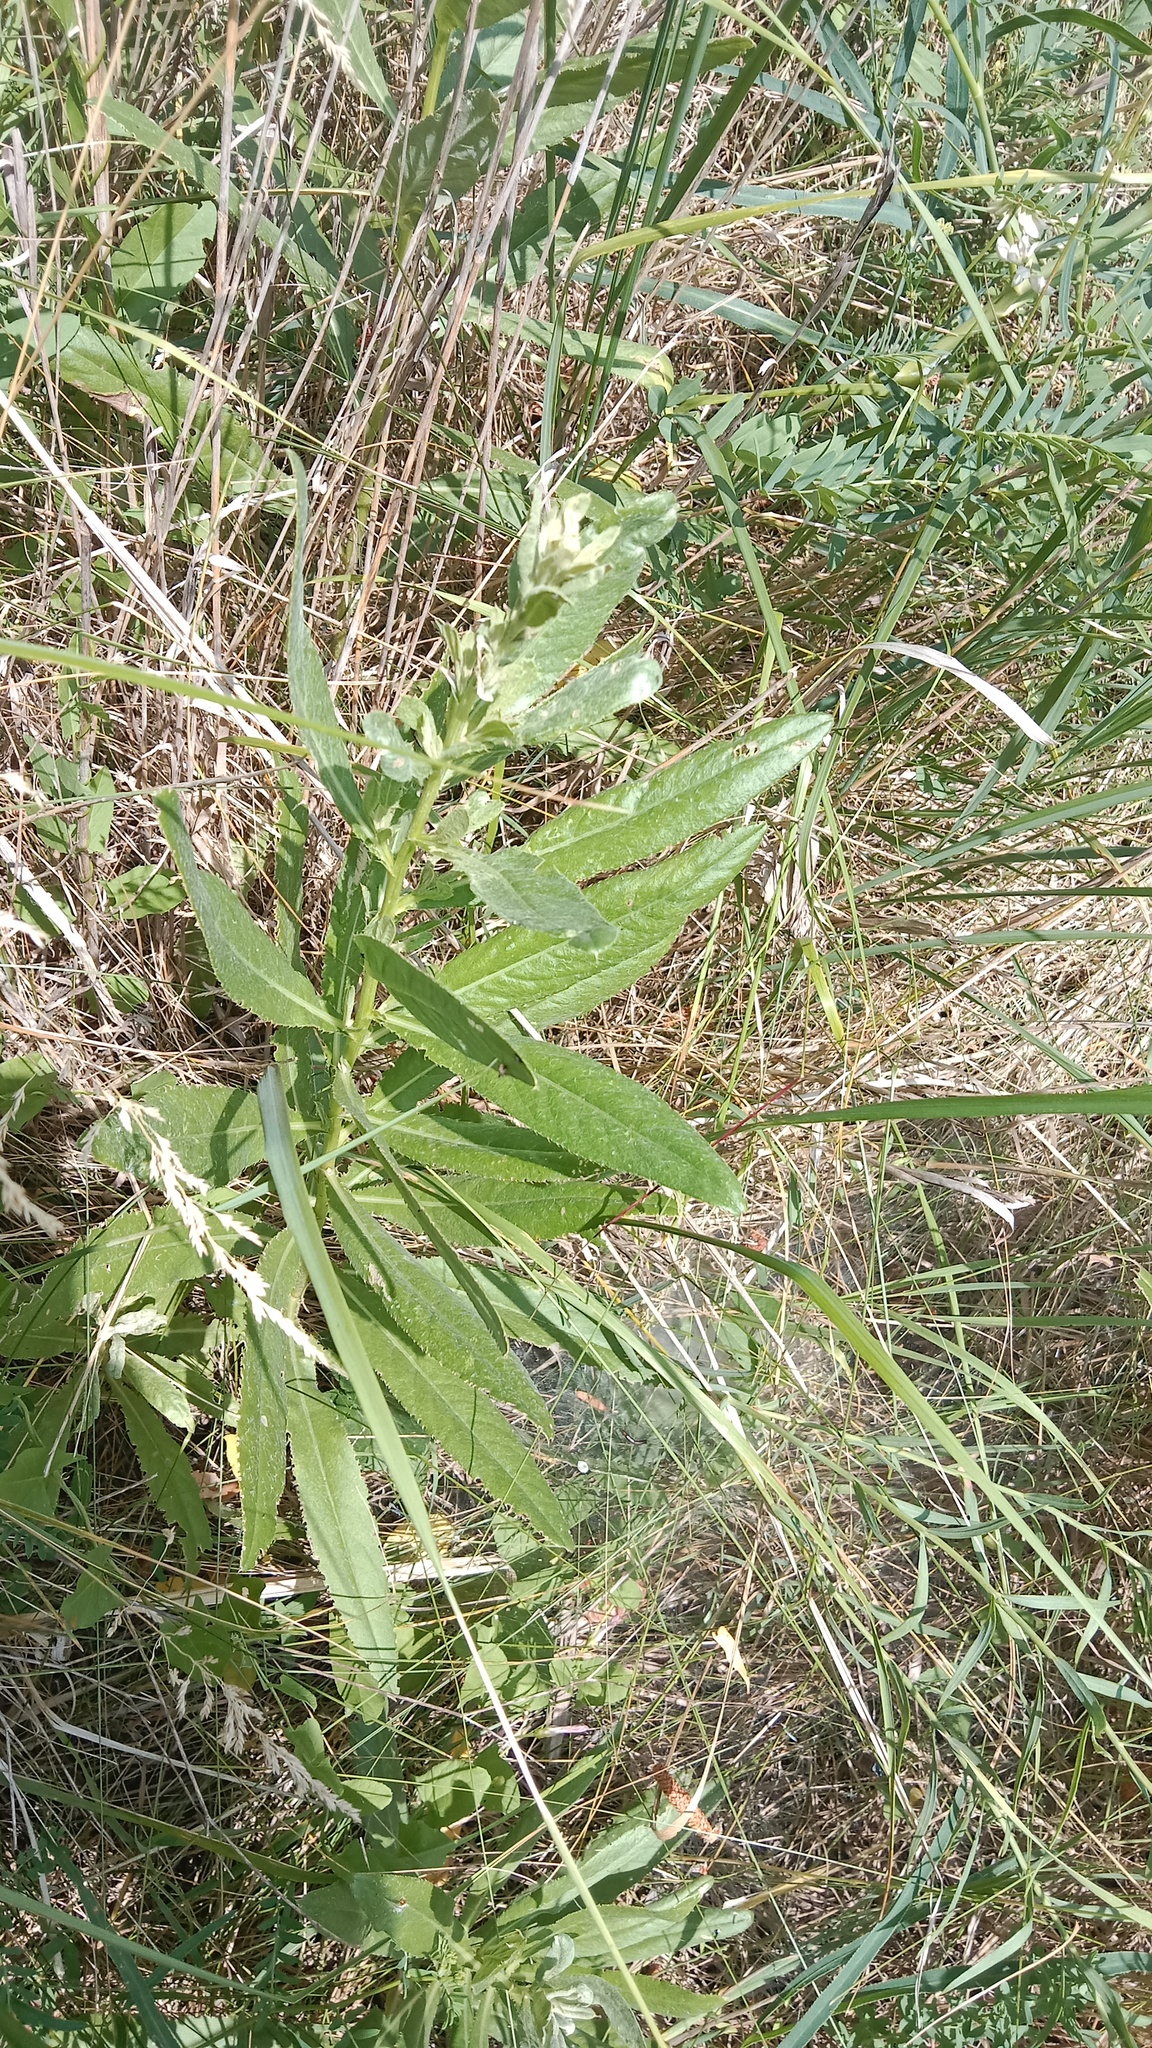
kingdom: Plantae
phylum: Tracheophyta
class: Magnoliopsida
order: Asterales
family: Asteraceae
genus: Cirsium
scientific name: Cirsium arvense
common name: Creeping thistle
